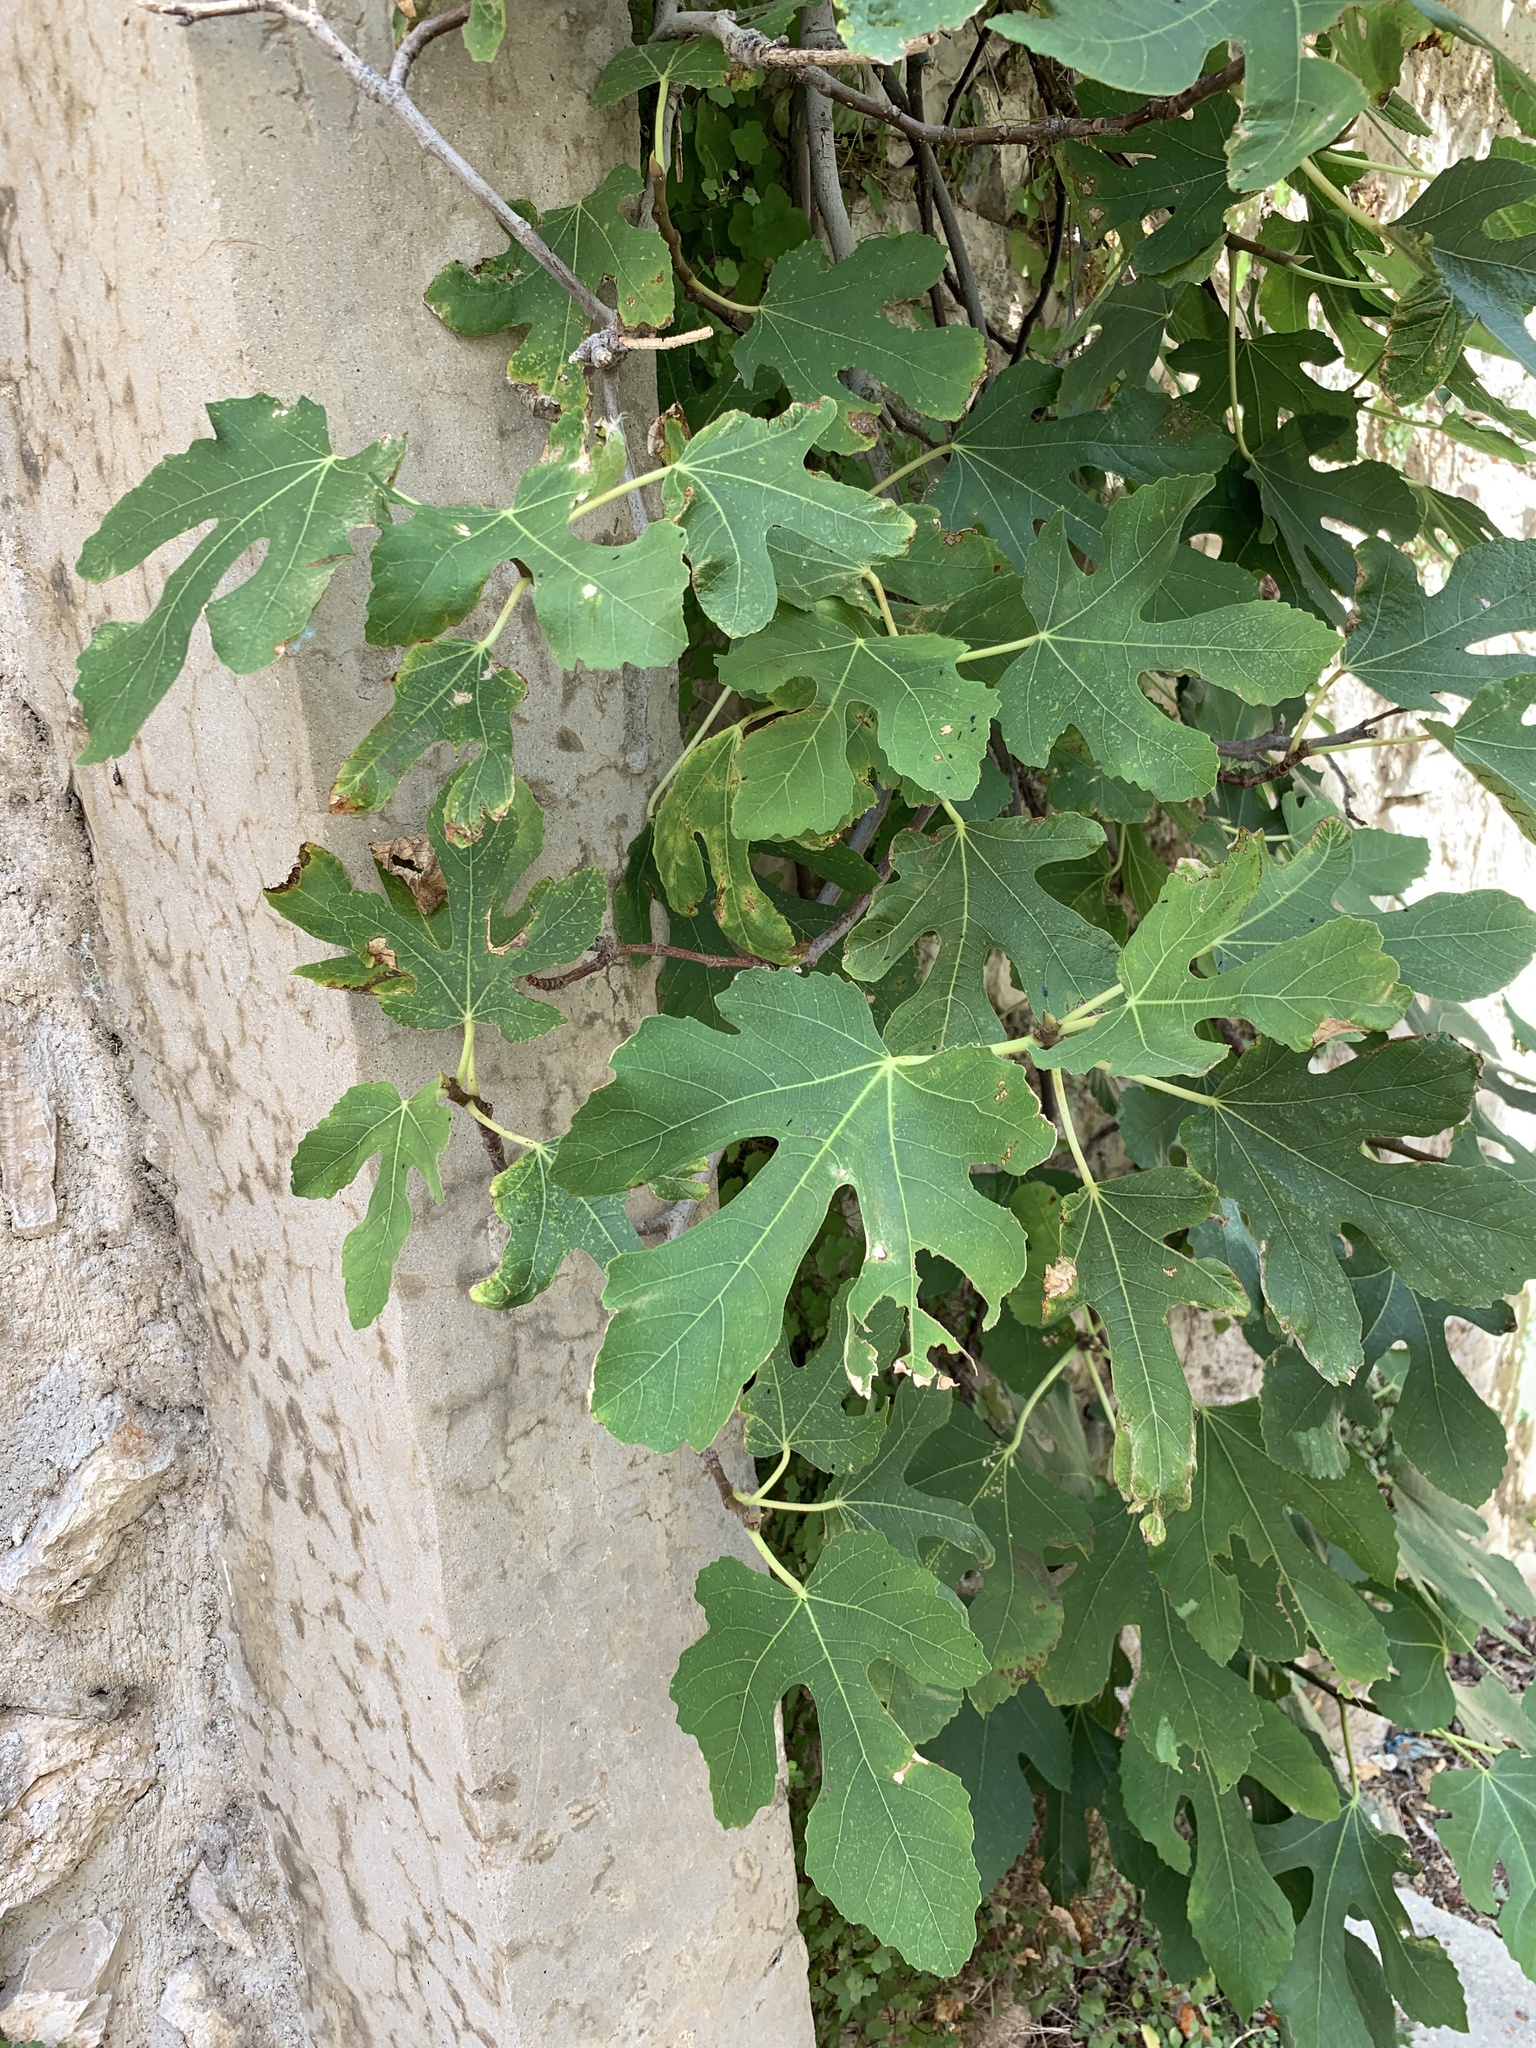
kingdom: Plantae
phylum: Tracheophyta
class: Magnoliopsida
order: Rosales
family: Moraceae
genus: Ficus
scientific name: Ficus carica
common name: Fig
